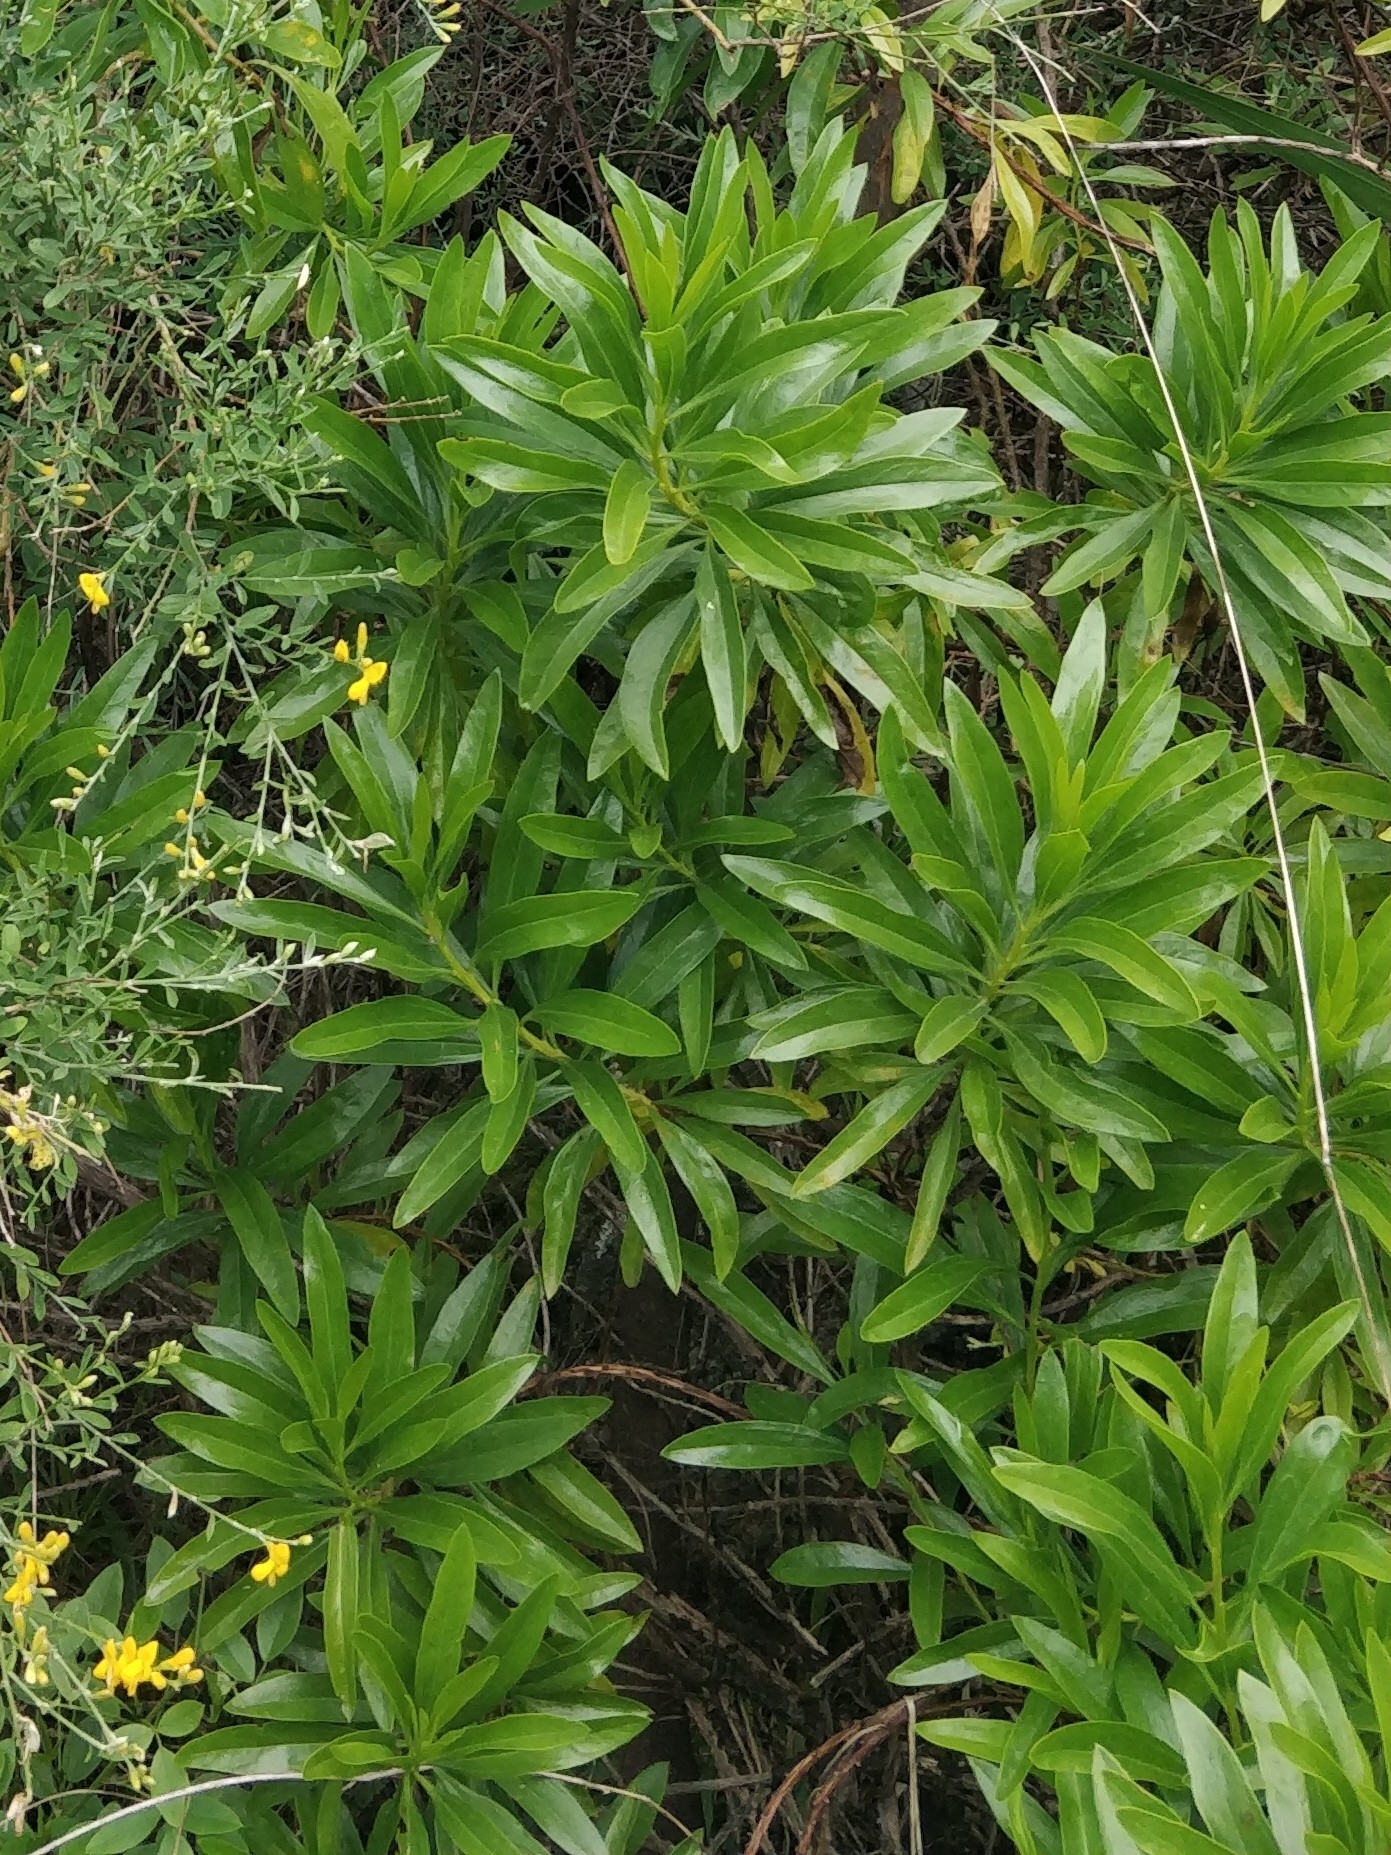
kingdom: Plantae
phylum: Tracheophyta
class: Magnoliopsida
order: Lamiales
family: Plantaginaceae
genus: Globularia
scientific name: Globularia salicina
